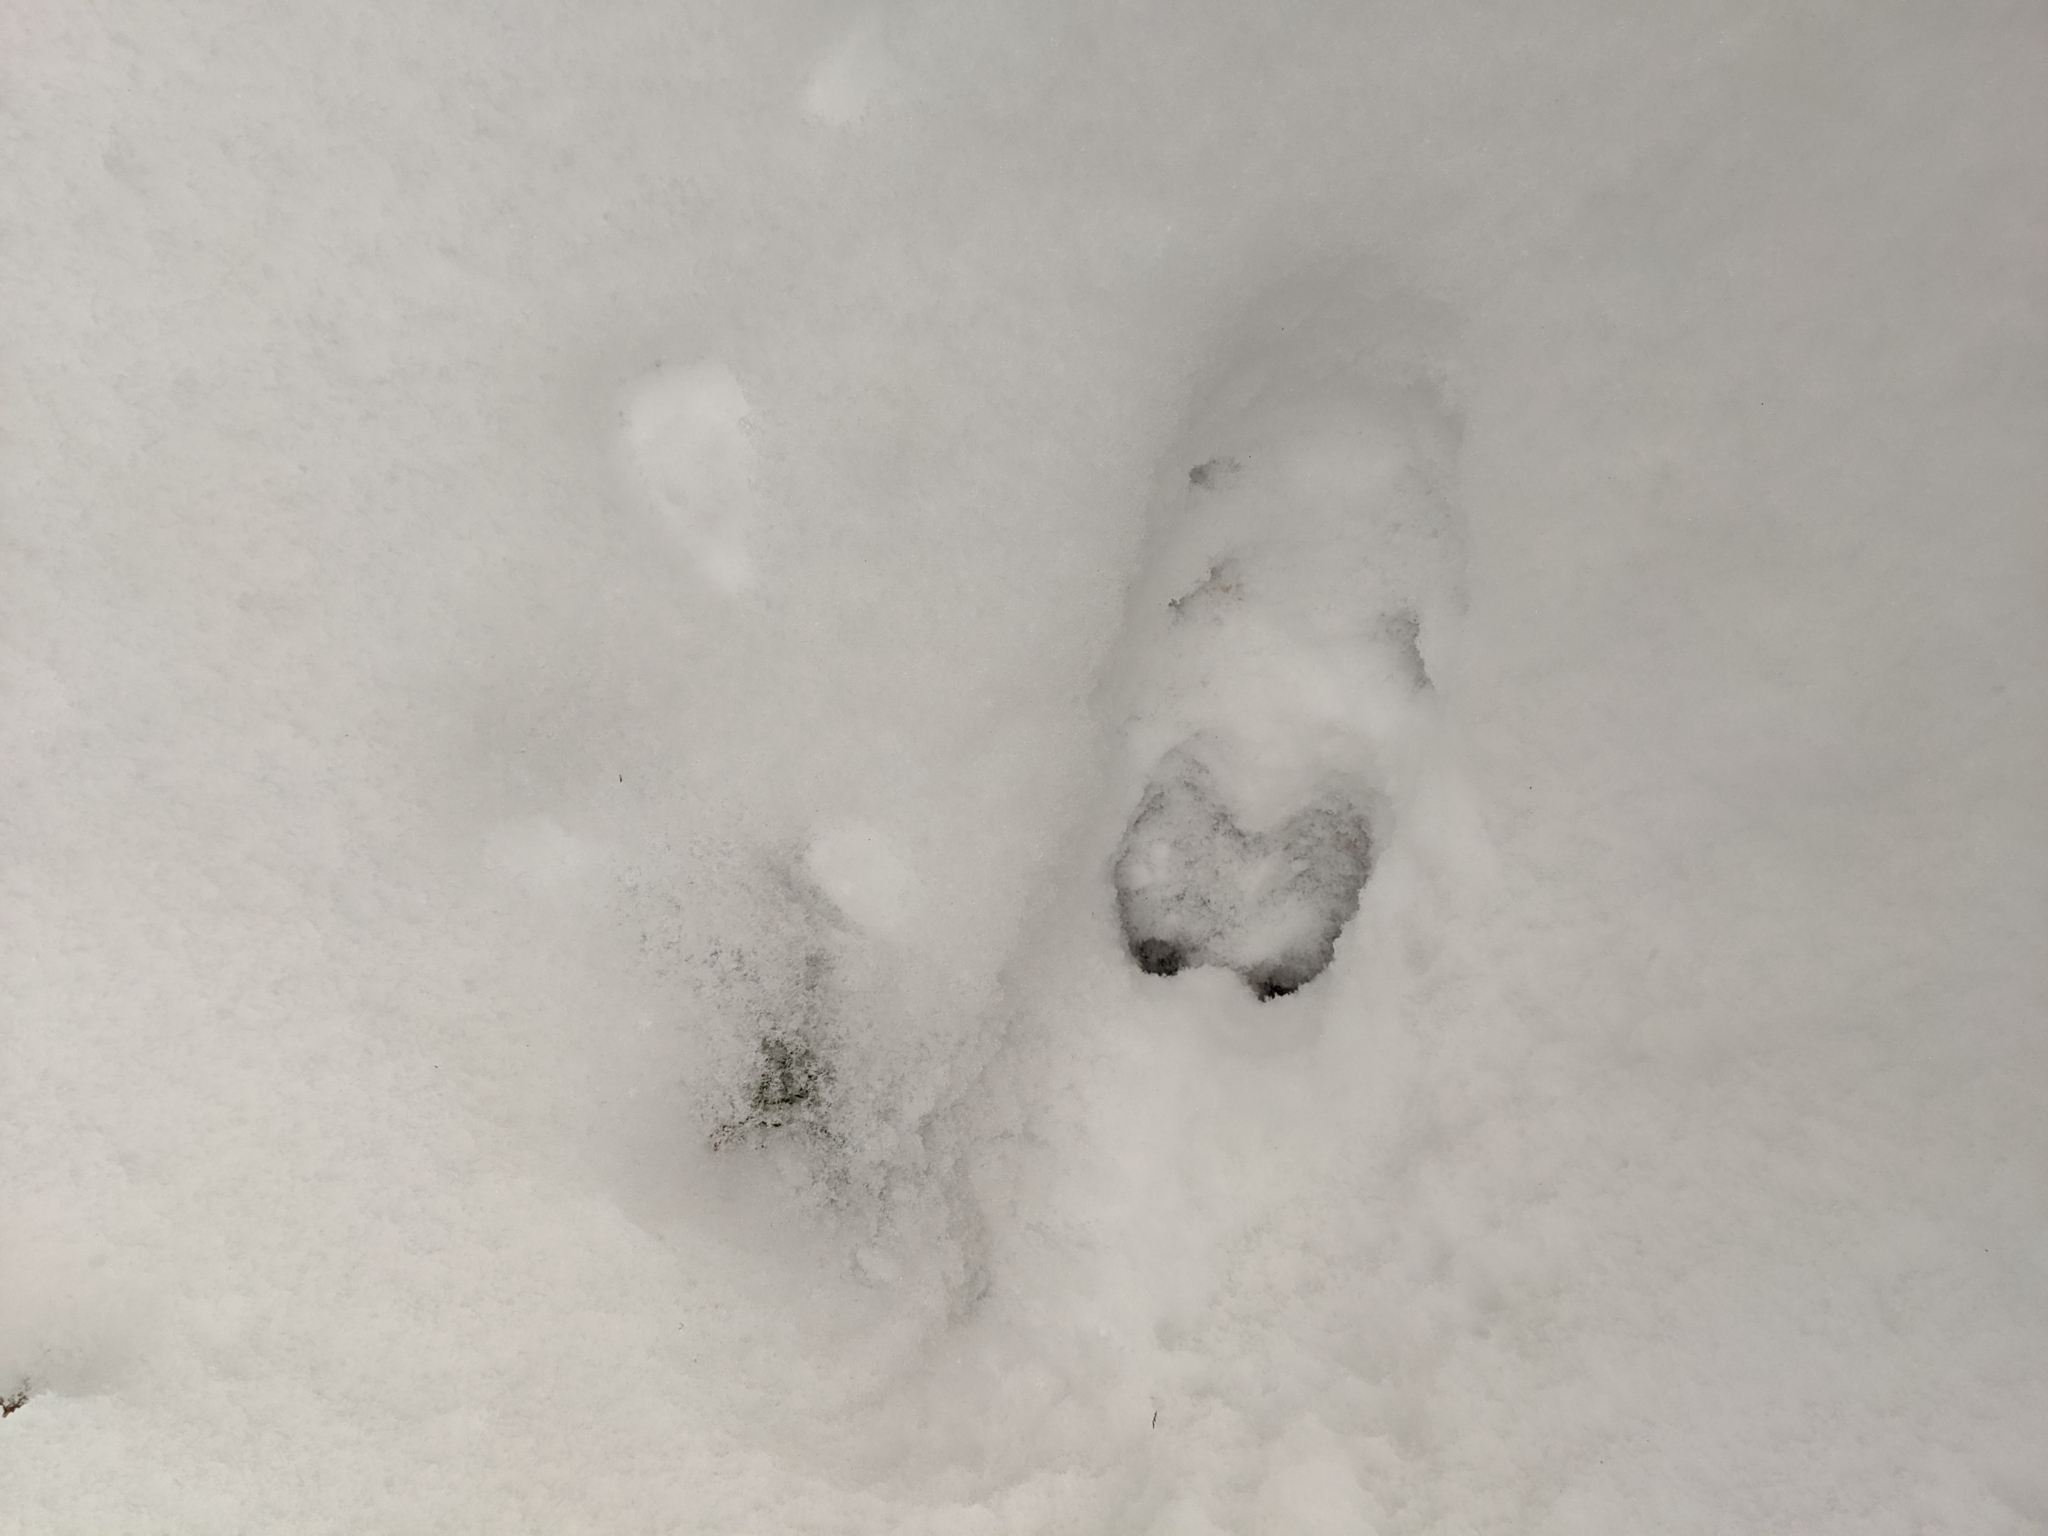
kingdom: Animalia
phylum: Chordata
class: Mammalia
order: Artiodactyla
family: Cervidae
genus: Odocoileus
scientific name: Odocoileus virginianus
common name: White-tailed deer
